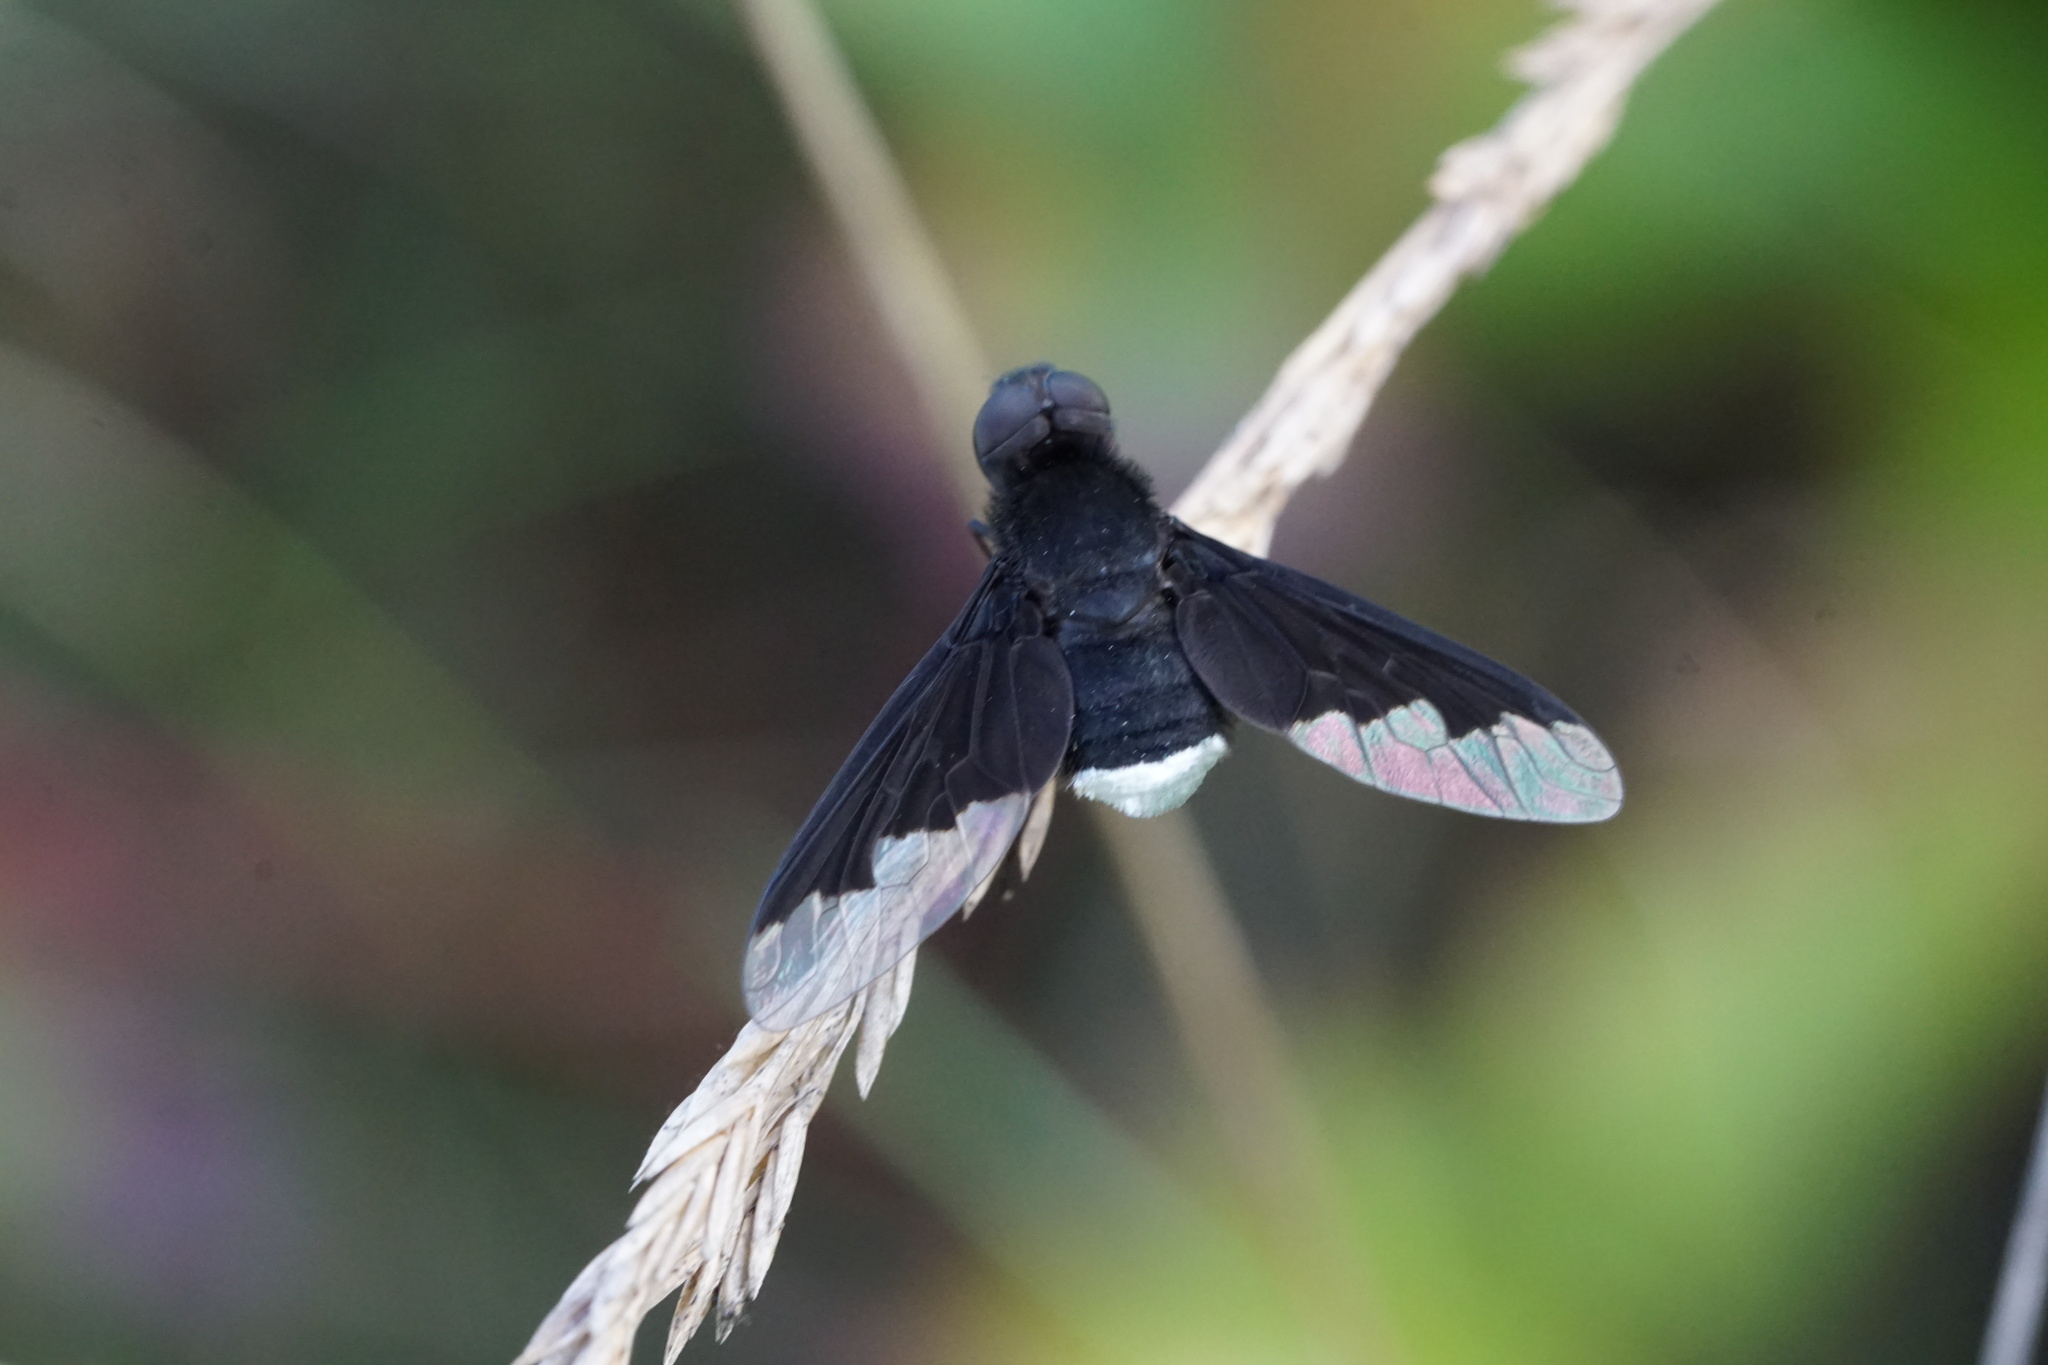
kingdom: Animalia
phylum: Arthropoda
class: Insecta
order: Diptera
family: Bombyliidae
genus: Anthrax
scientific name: Anthrax analis
